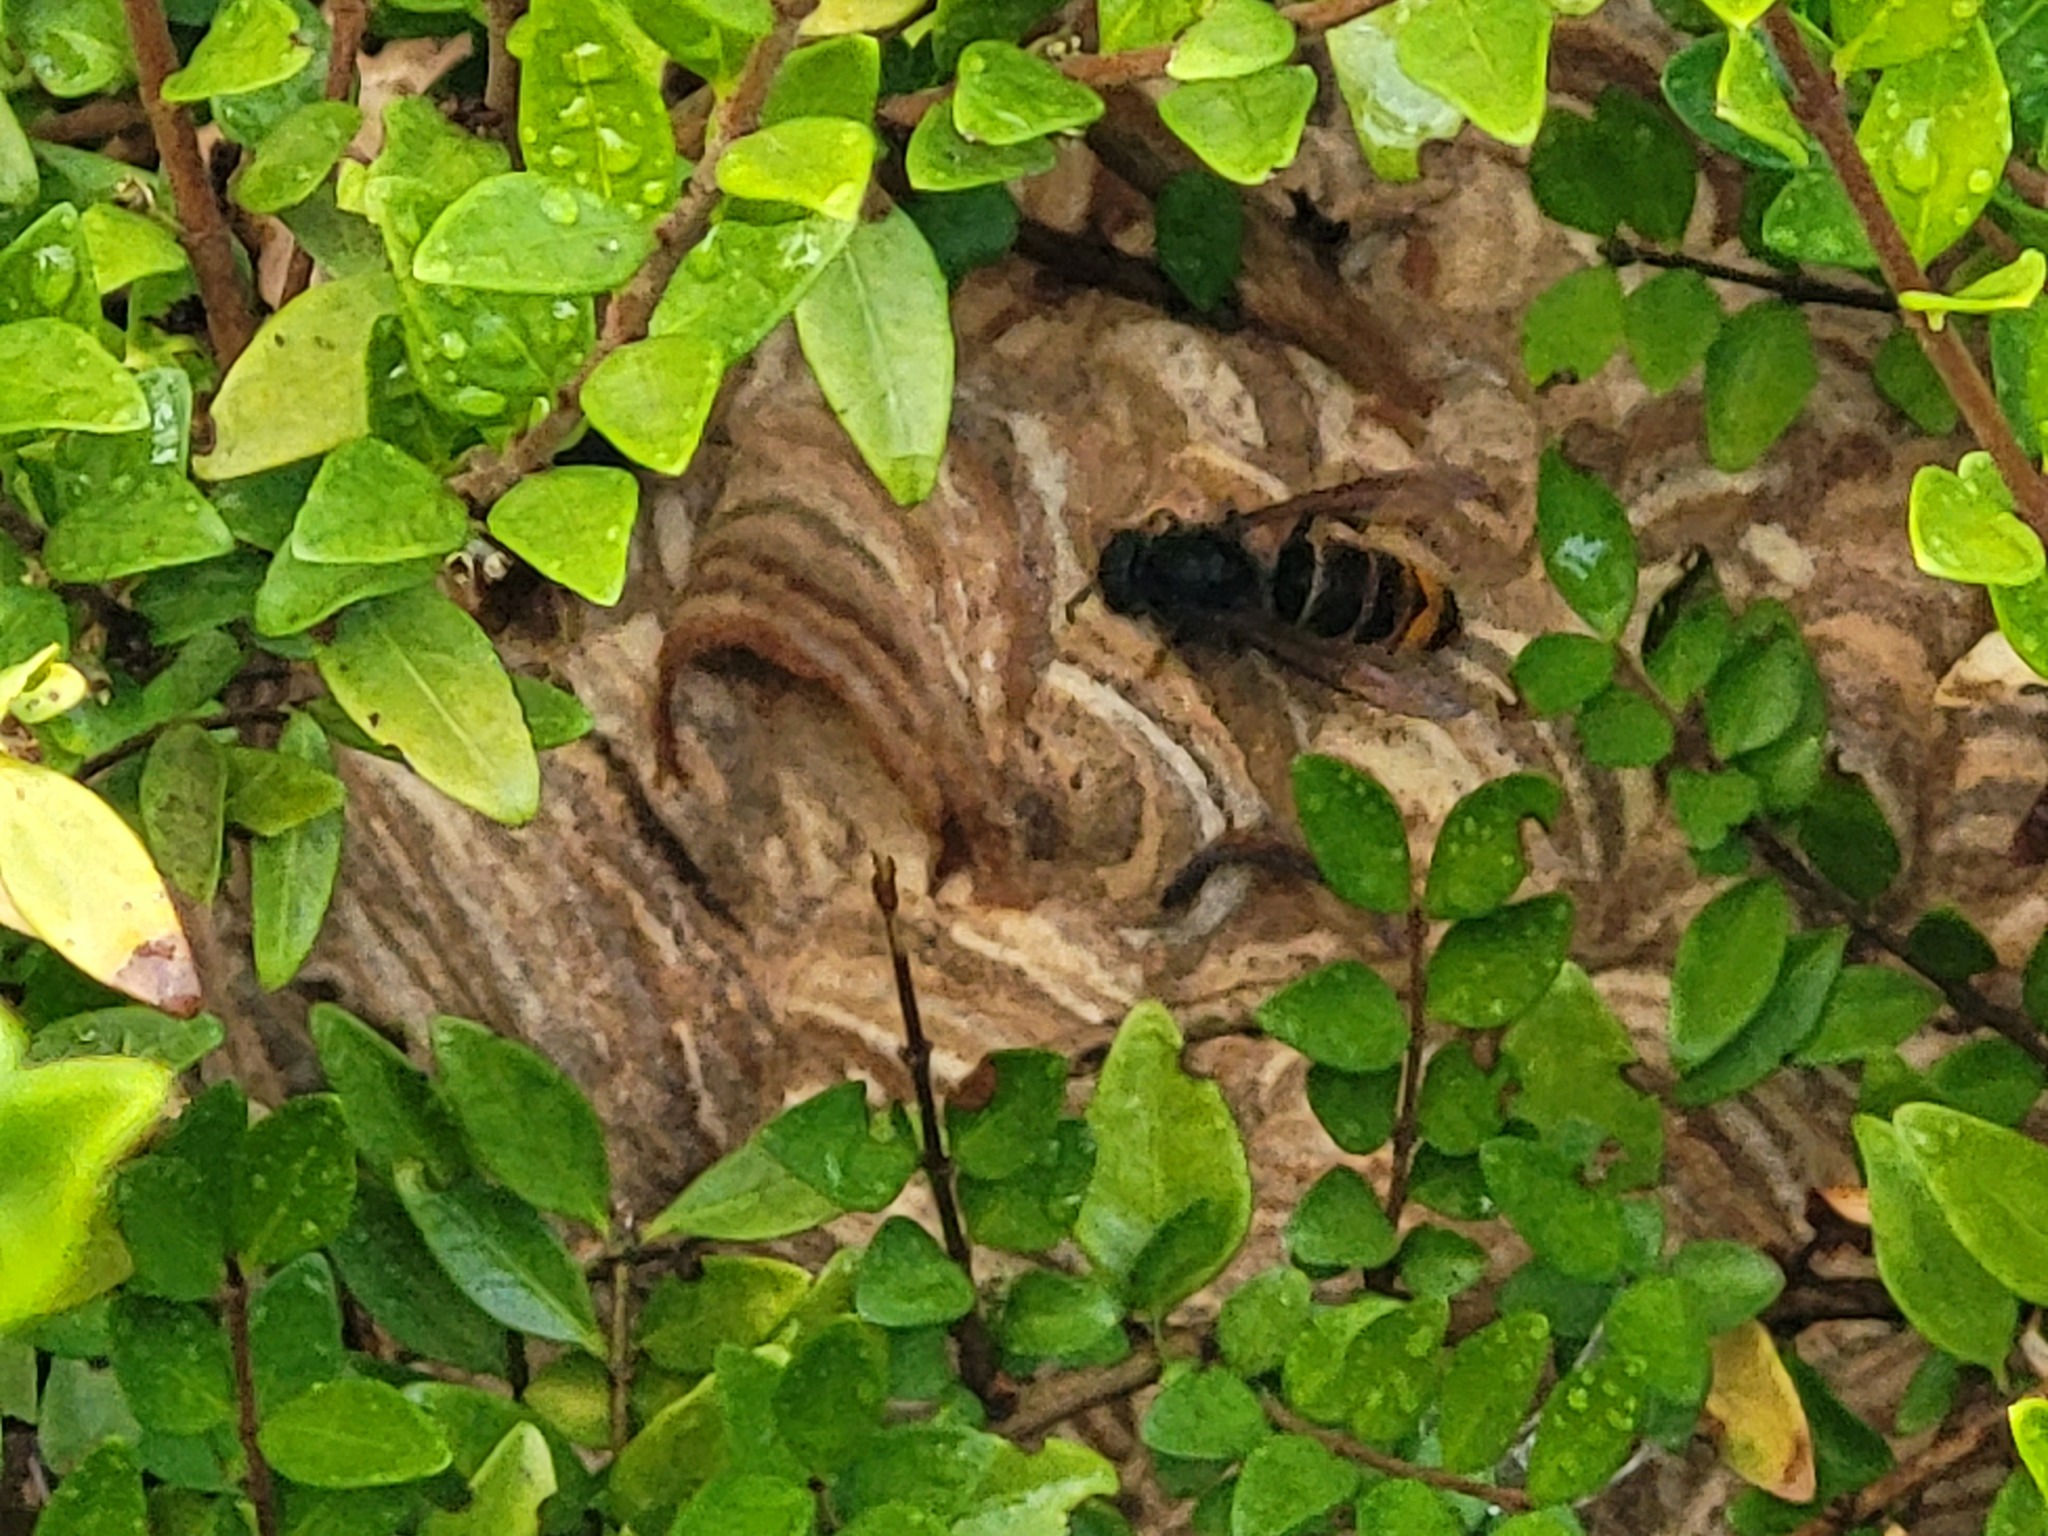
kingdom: Animalia
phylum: Arthropoda
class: Insecta
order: Hymenoptera
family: Vespidae
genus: Vespa
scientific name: Vespa velutina
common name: Asian hornet
